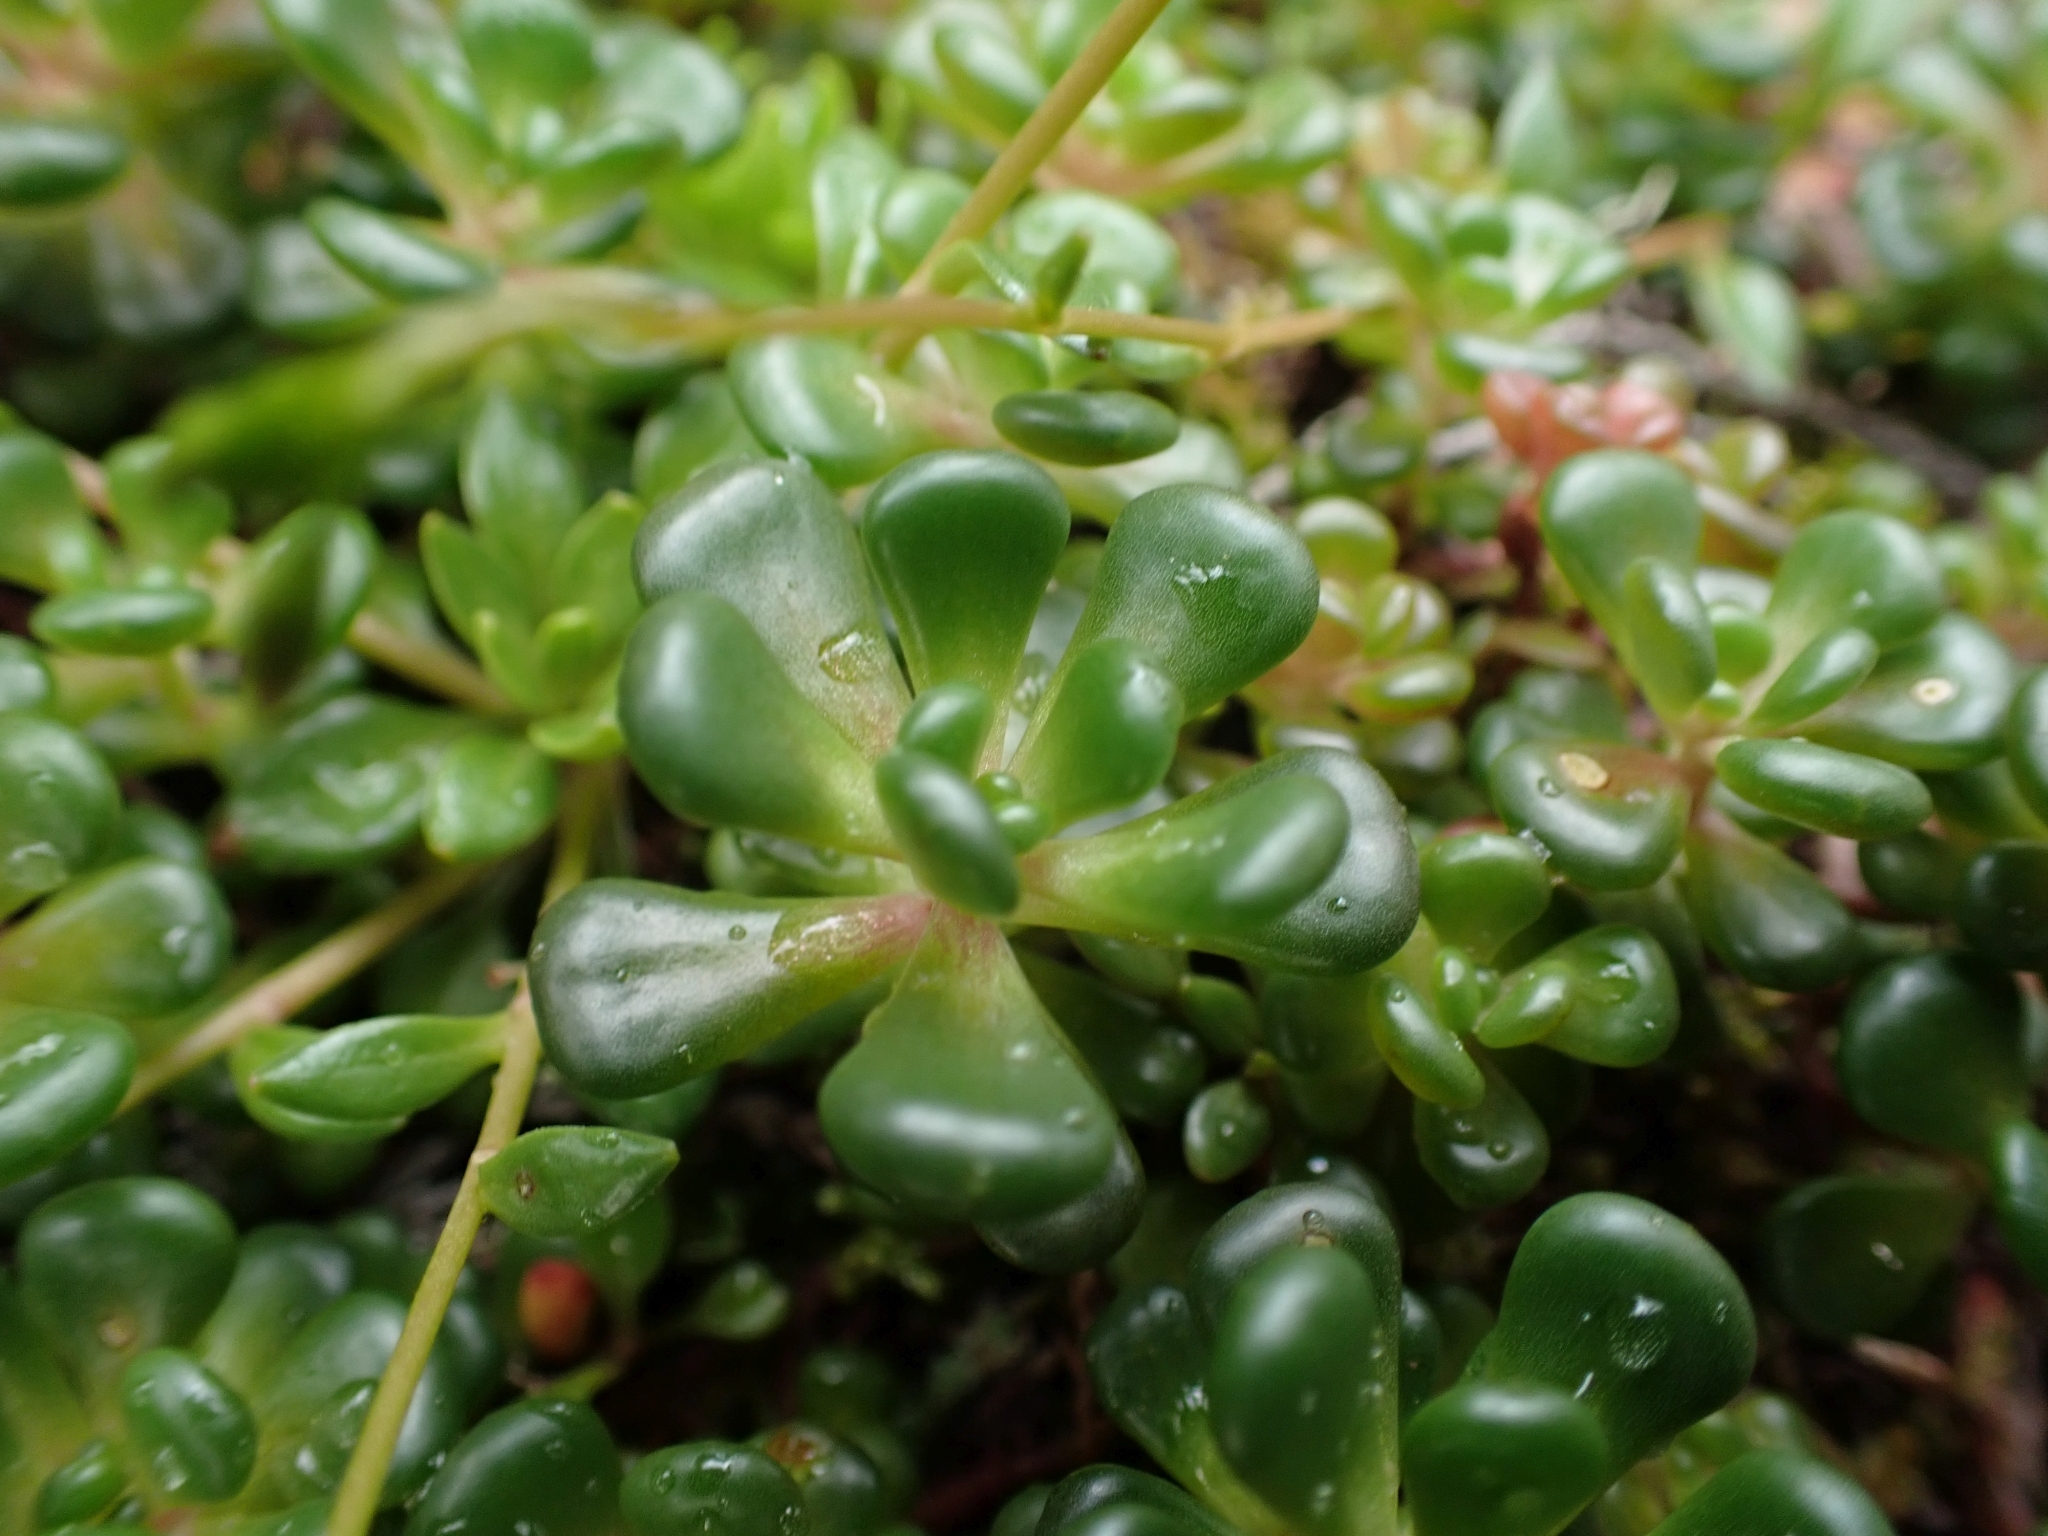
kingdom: Plantae
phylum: Tracheophyta
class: Magnoliopsida
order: Saxifragales
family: Crassulaceae
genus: Sedum
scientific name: Sedum oreganum
